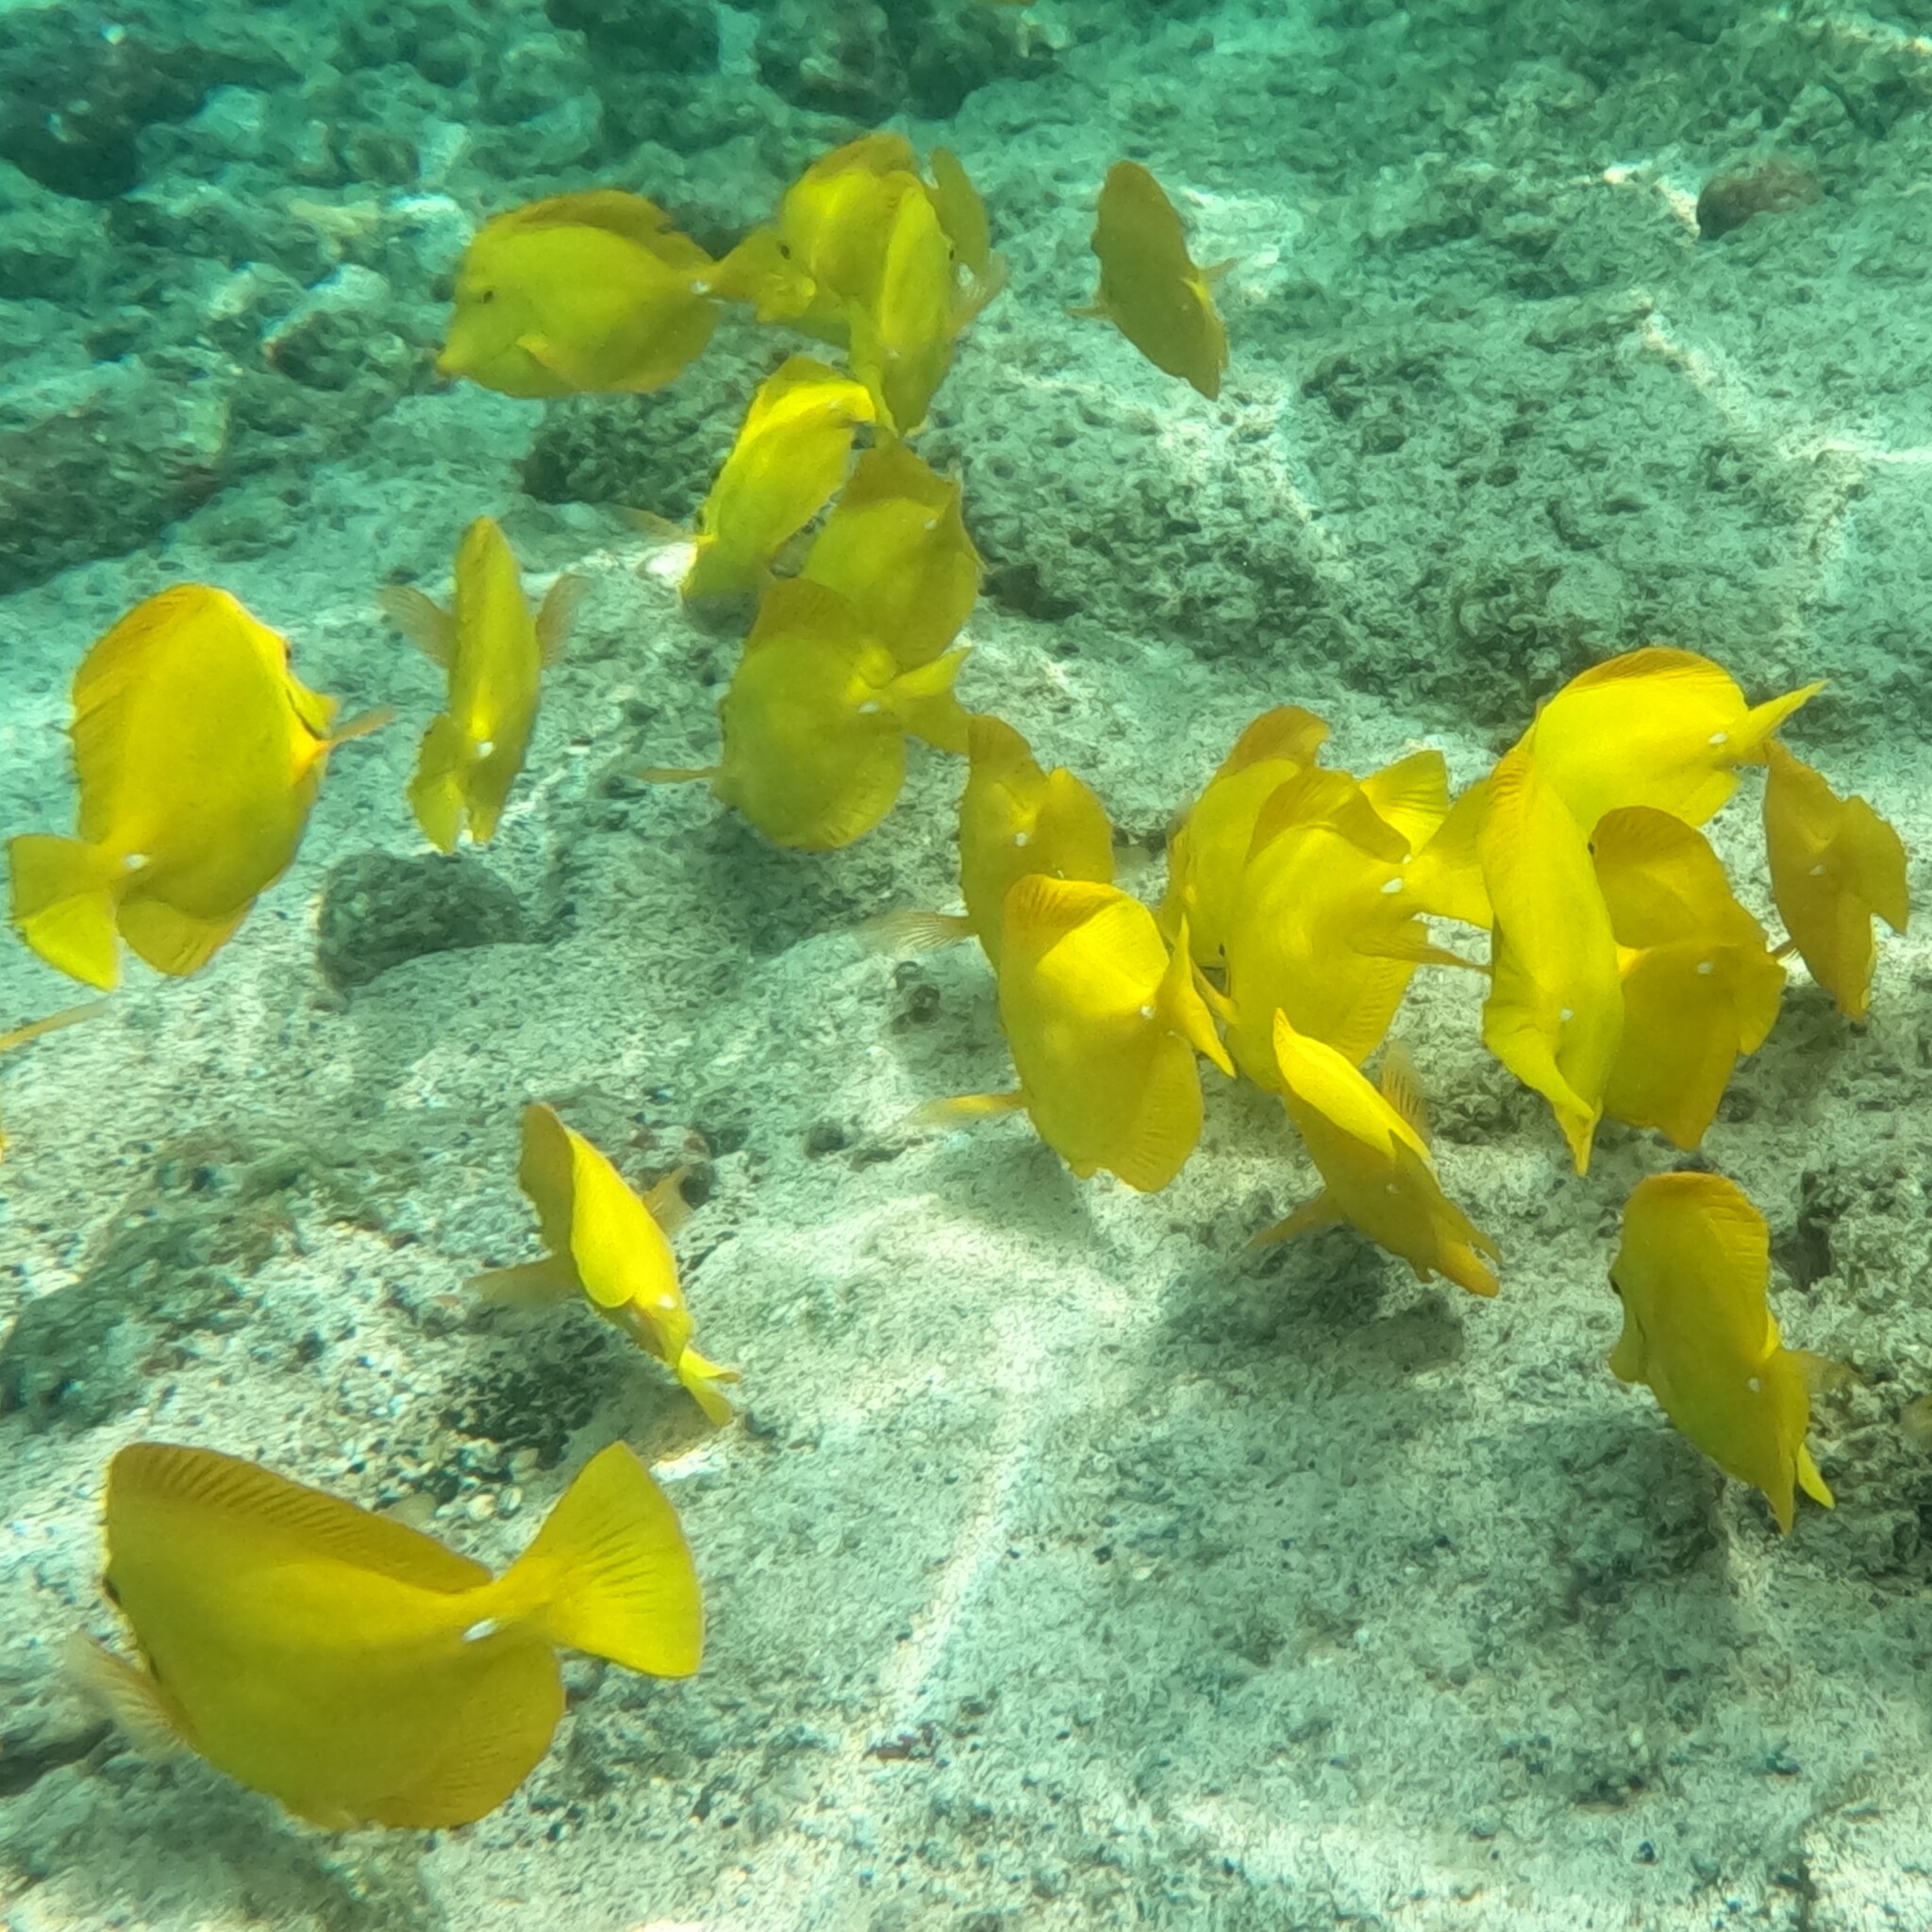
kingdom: Animalia
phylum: Chordata
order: Perciformes
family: Acanthuridae
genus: Zebrasoma
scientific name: Zebrasoma flavescens
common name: Yellow tang
